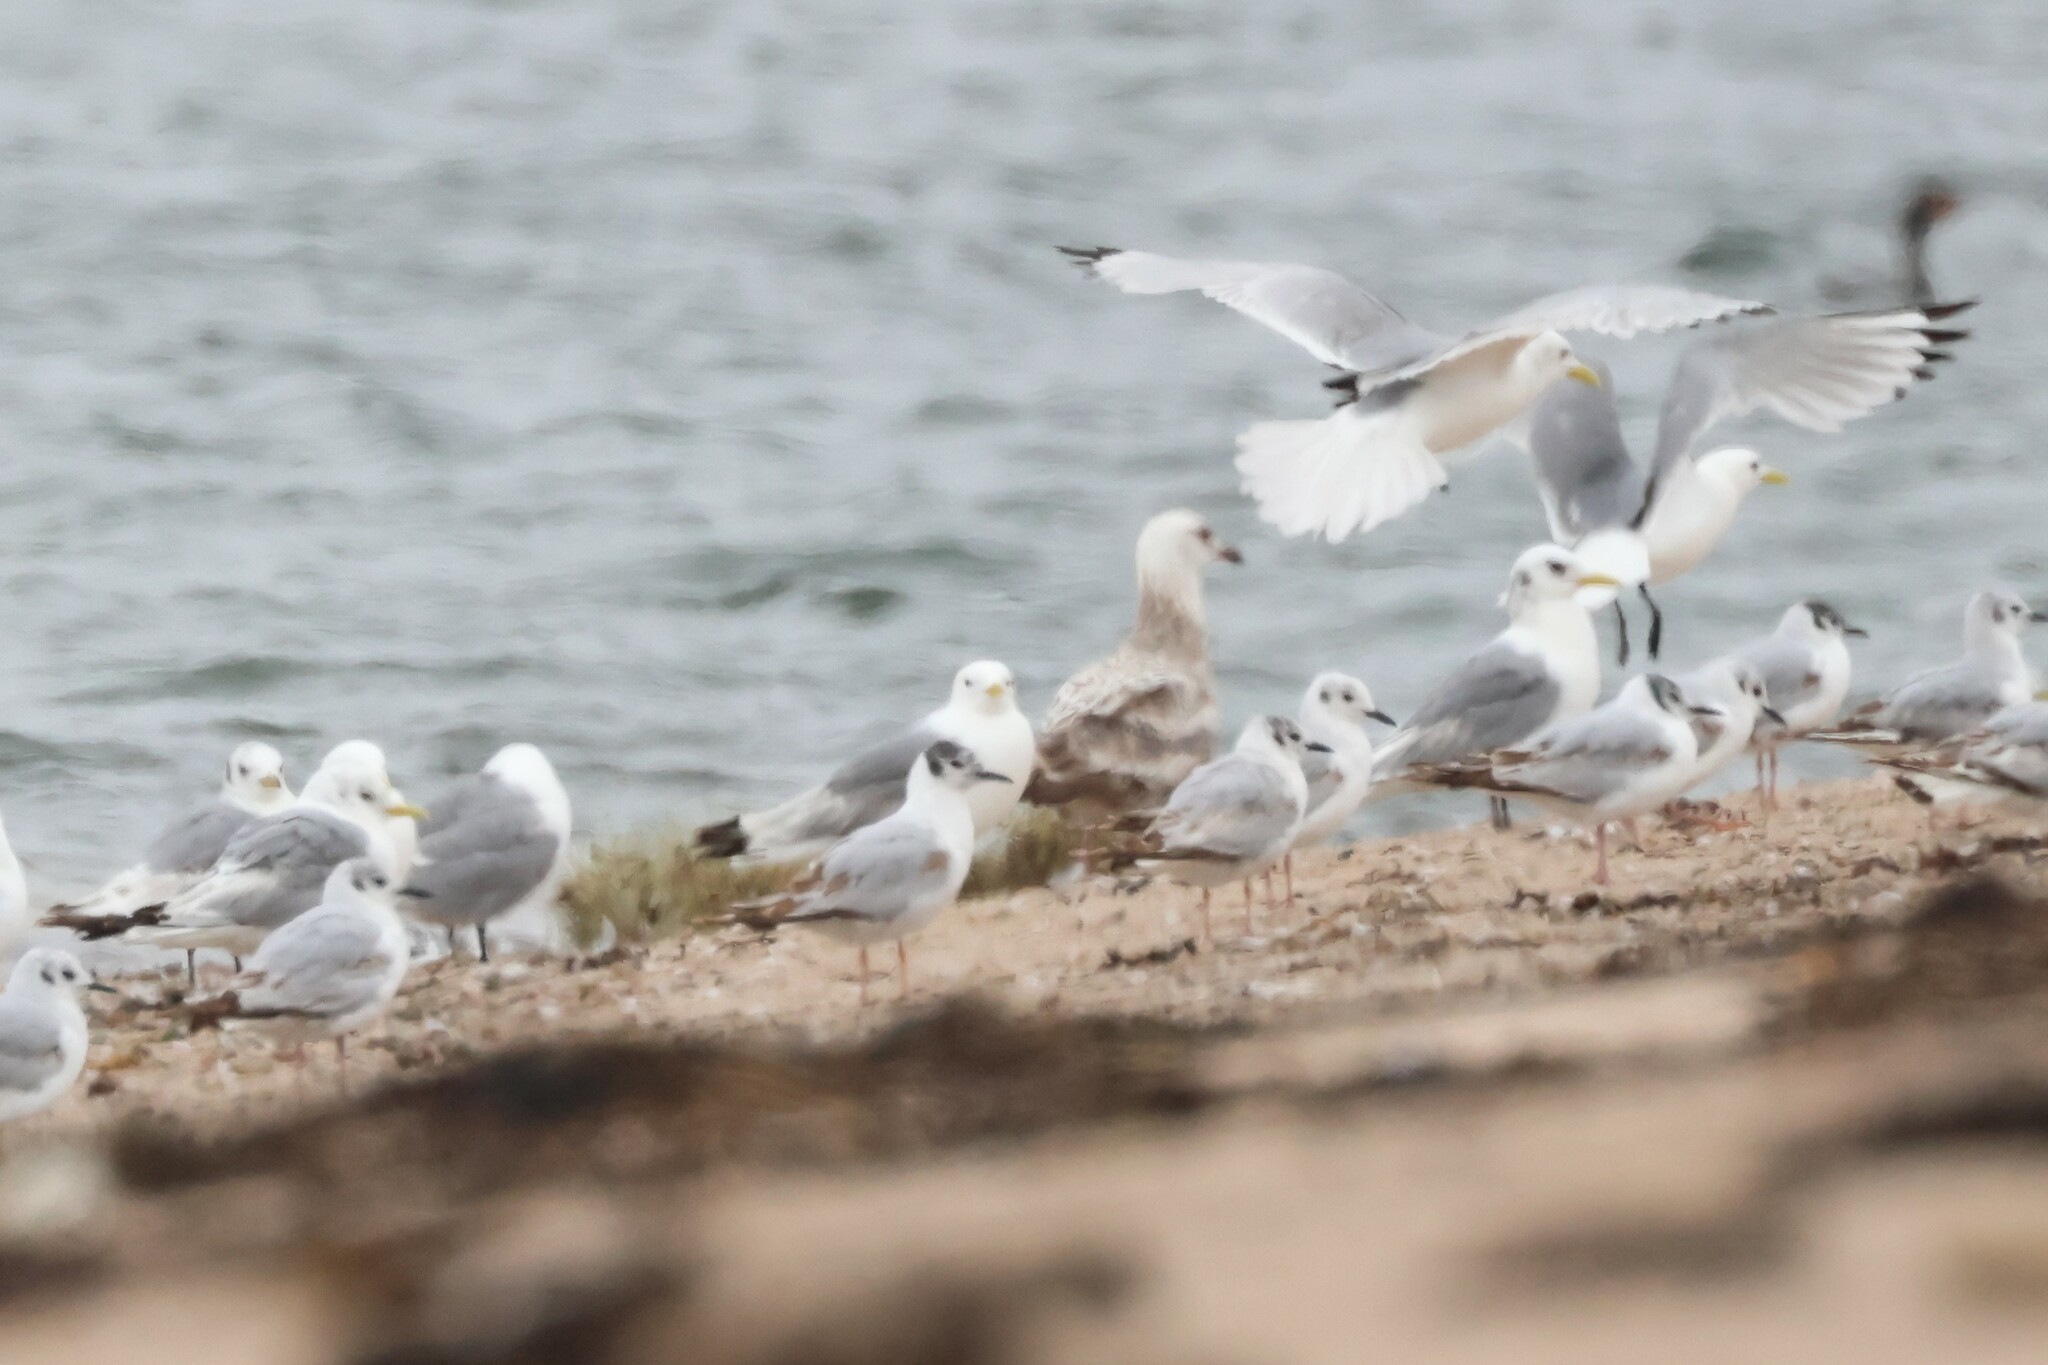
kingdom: Animalia
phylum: Chordata
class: Aves
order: Charadriiformes
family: Laridae
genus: Chroicocephalus
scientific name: Chroicocephalus philadelphia
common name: Bonaparte's gull
